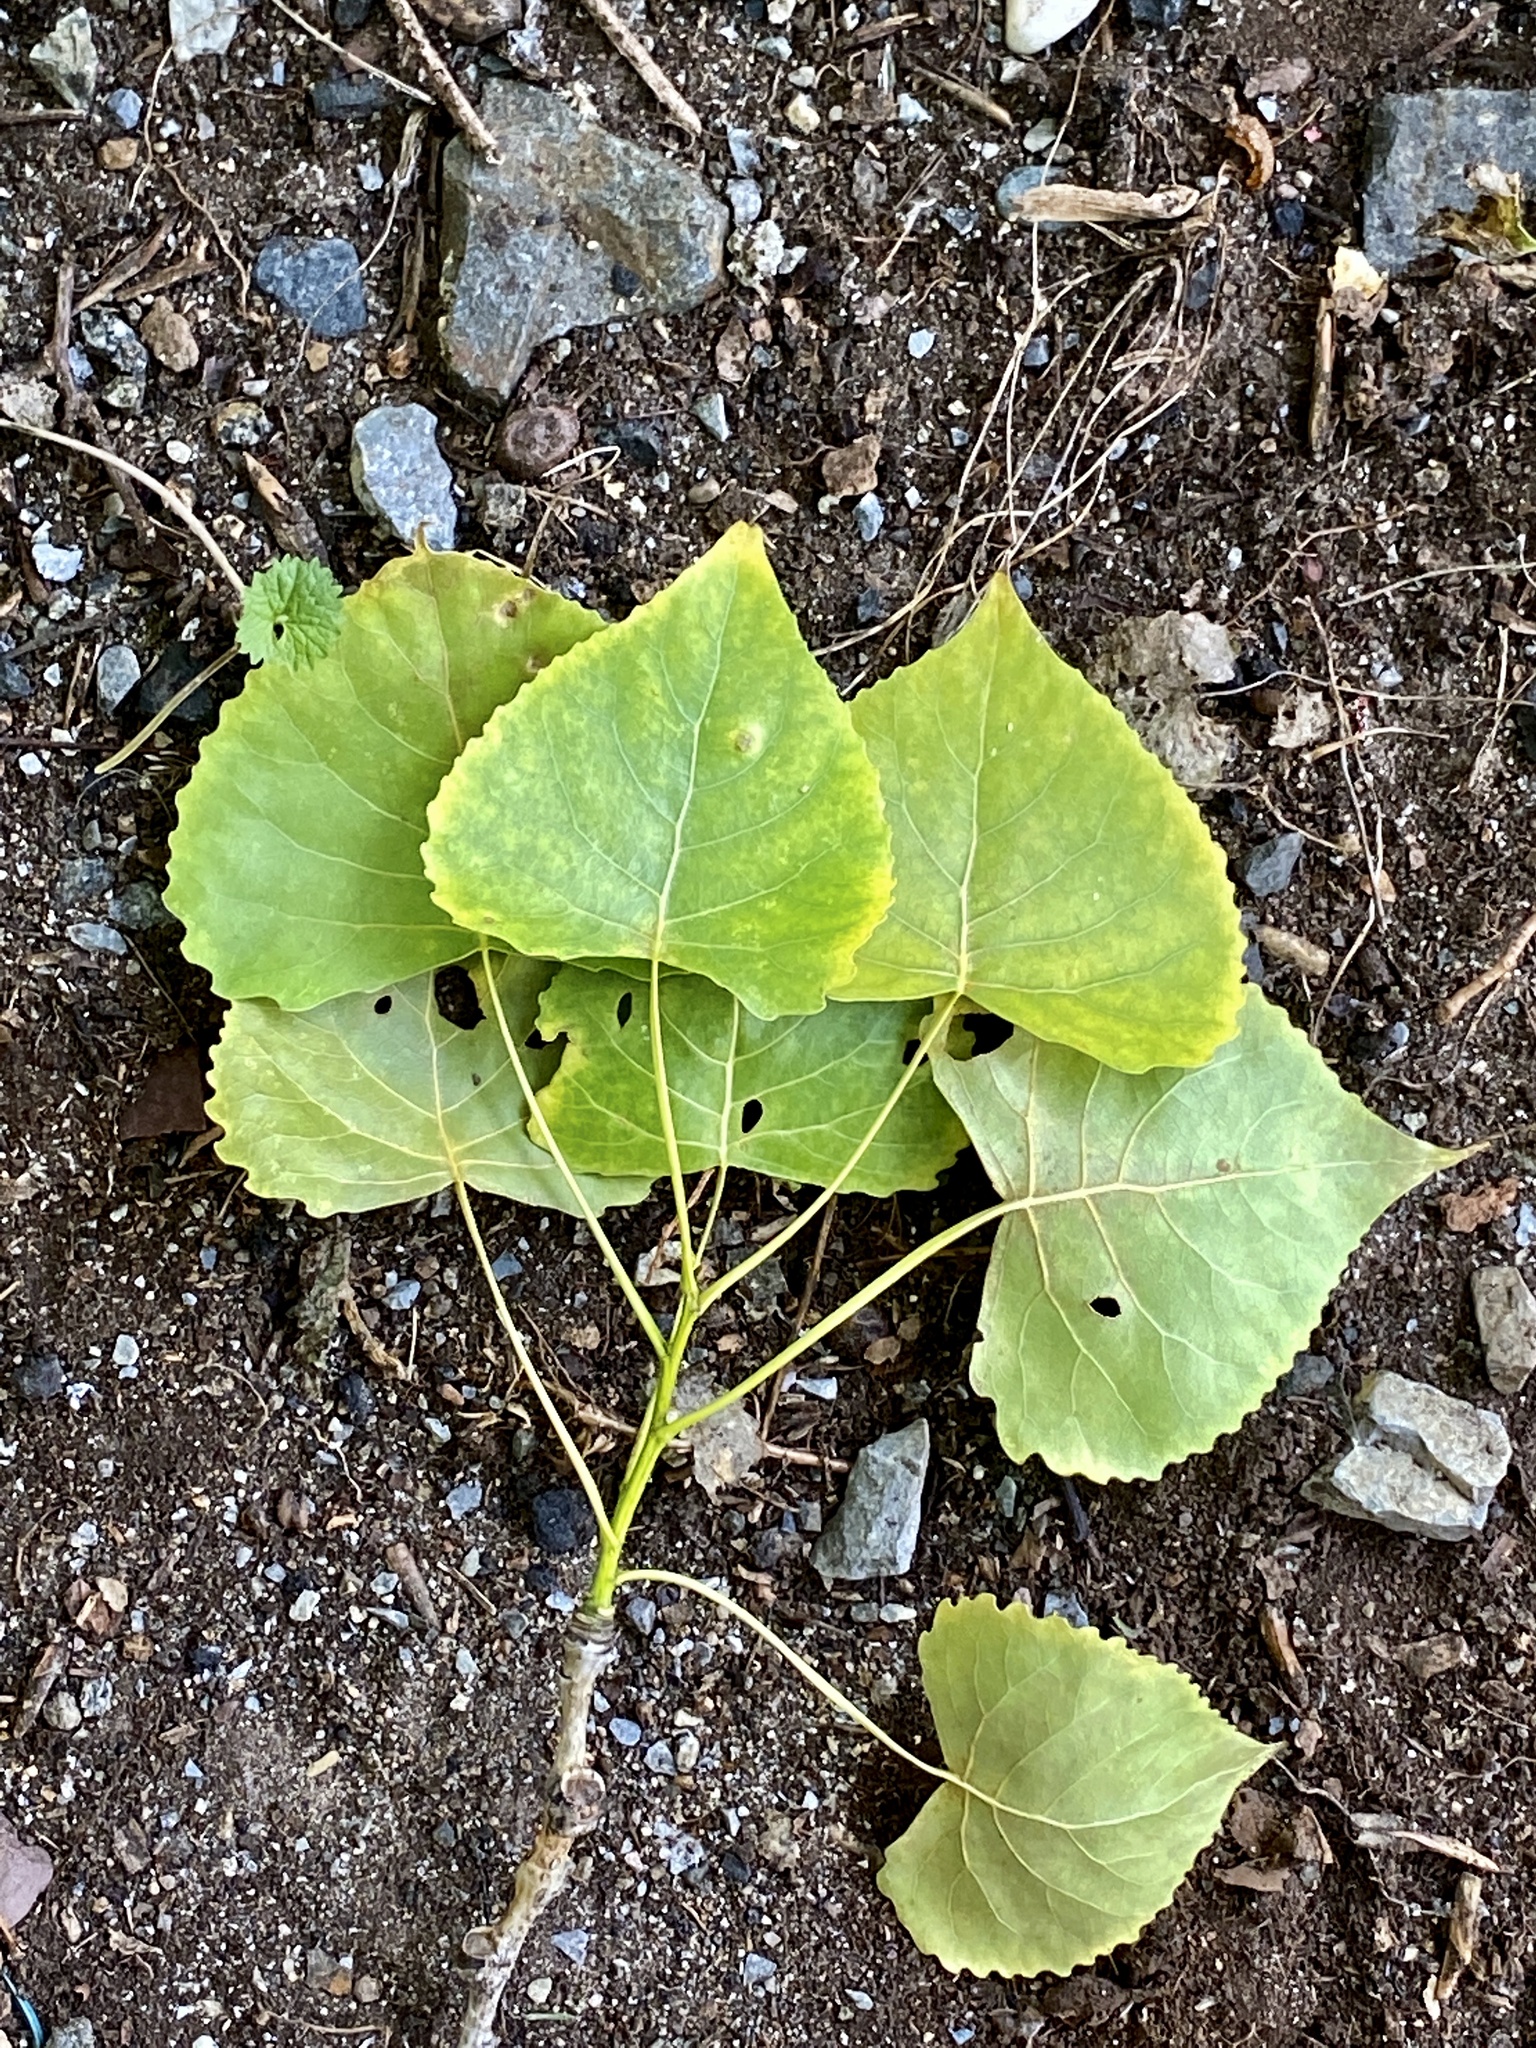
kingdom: Plantae
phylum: Tracheophyta
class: Magnoliopsida
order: Malpighiales
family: Salicaceae
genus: Populus
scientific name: Populus deltoides
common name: Eastern cottonwood
